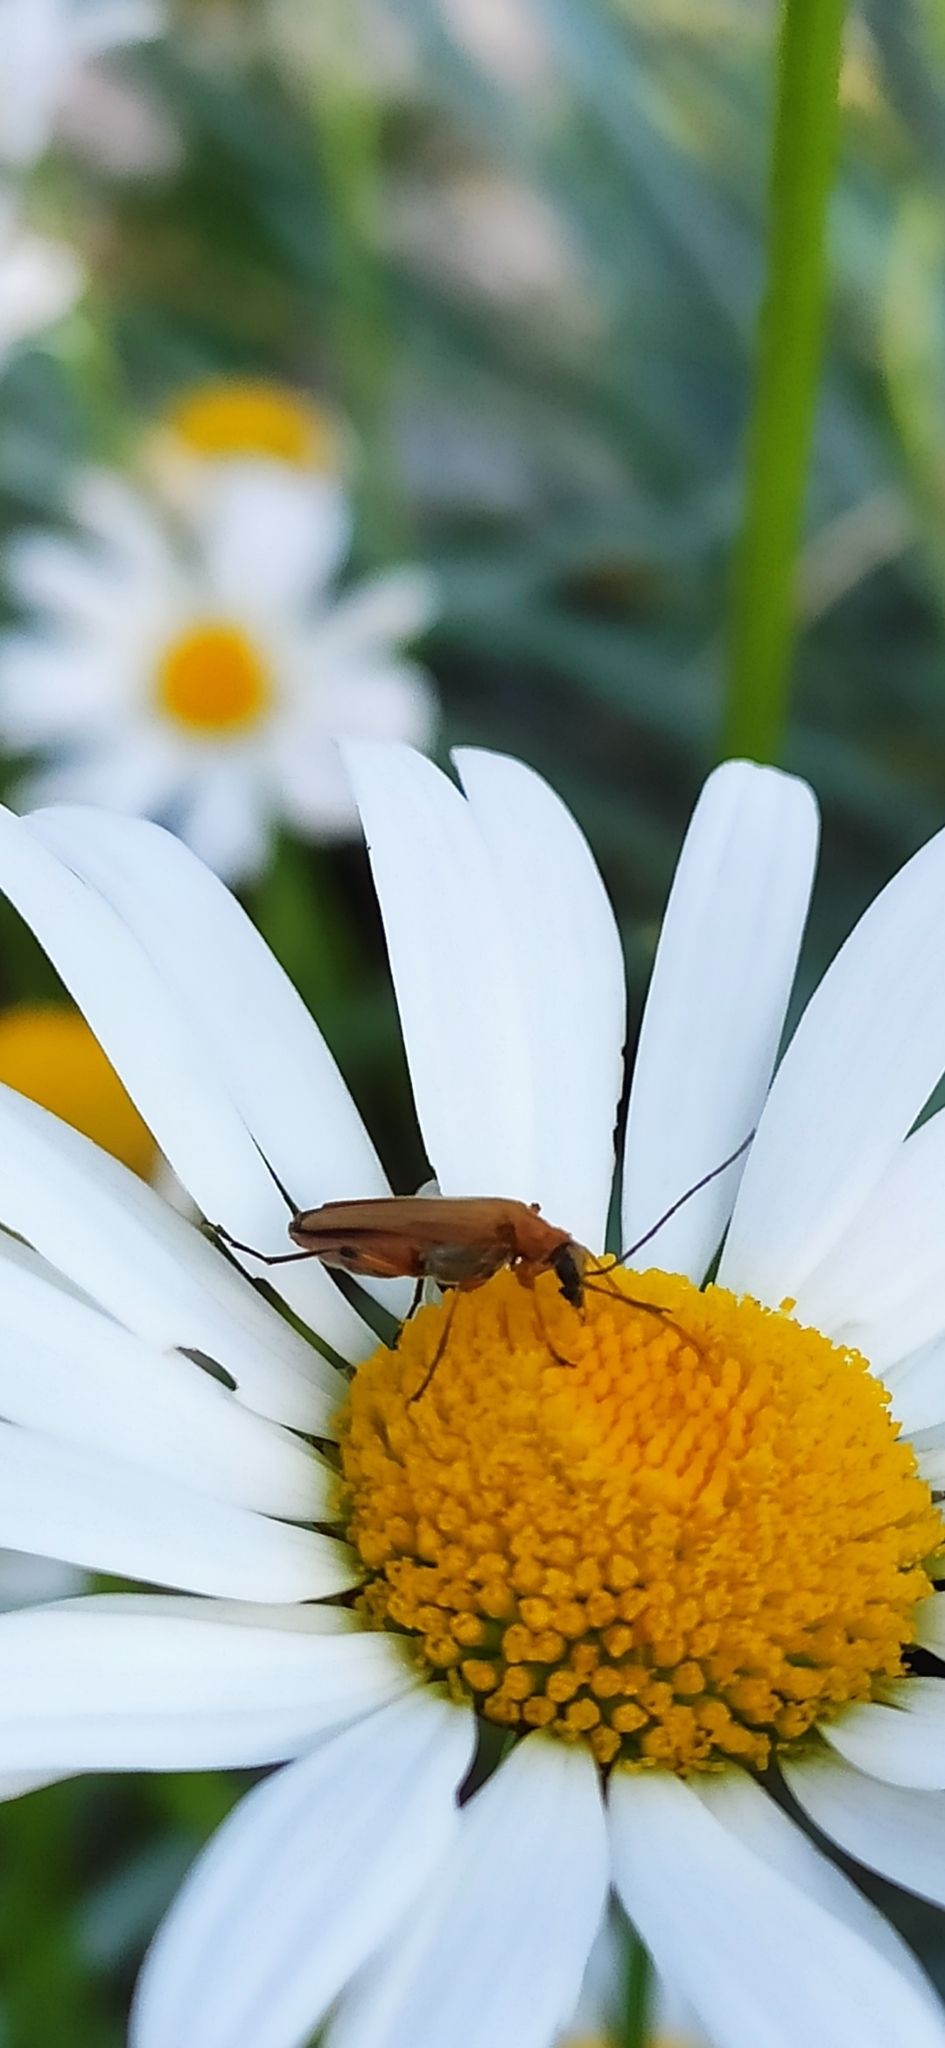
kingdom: Animalia
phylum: Arthropoda
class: Insecta
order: Coleoptera
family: Oedemeridae
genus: Oedemera
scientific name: Oedemera podagrariae
